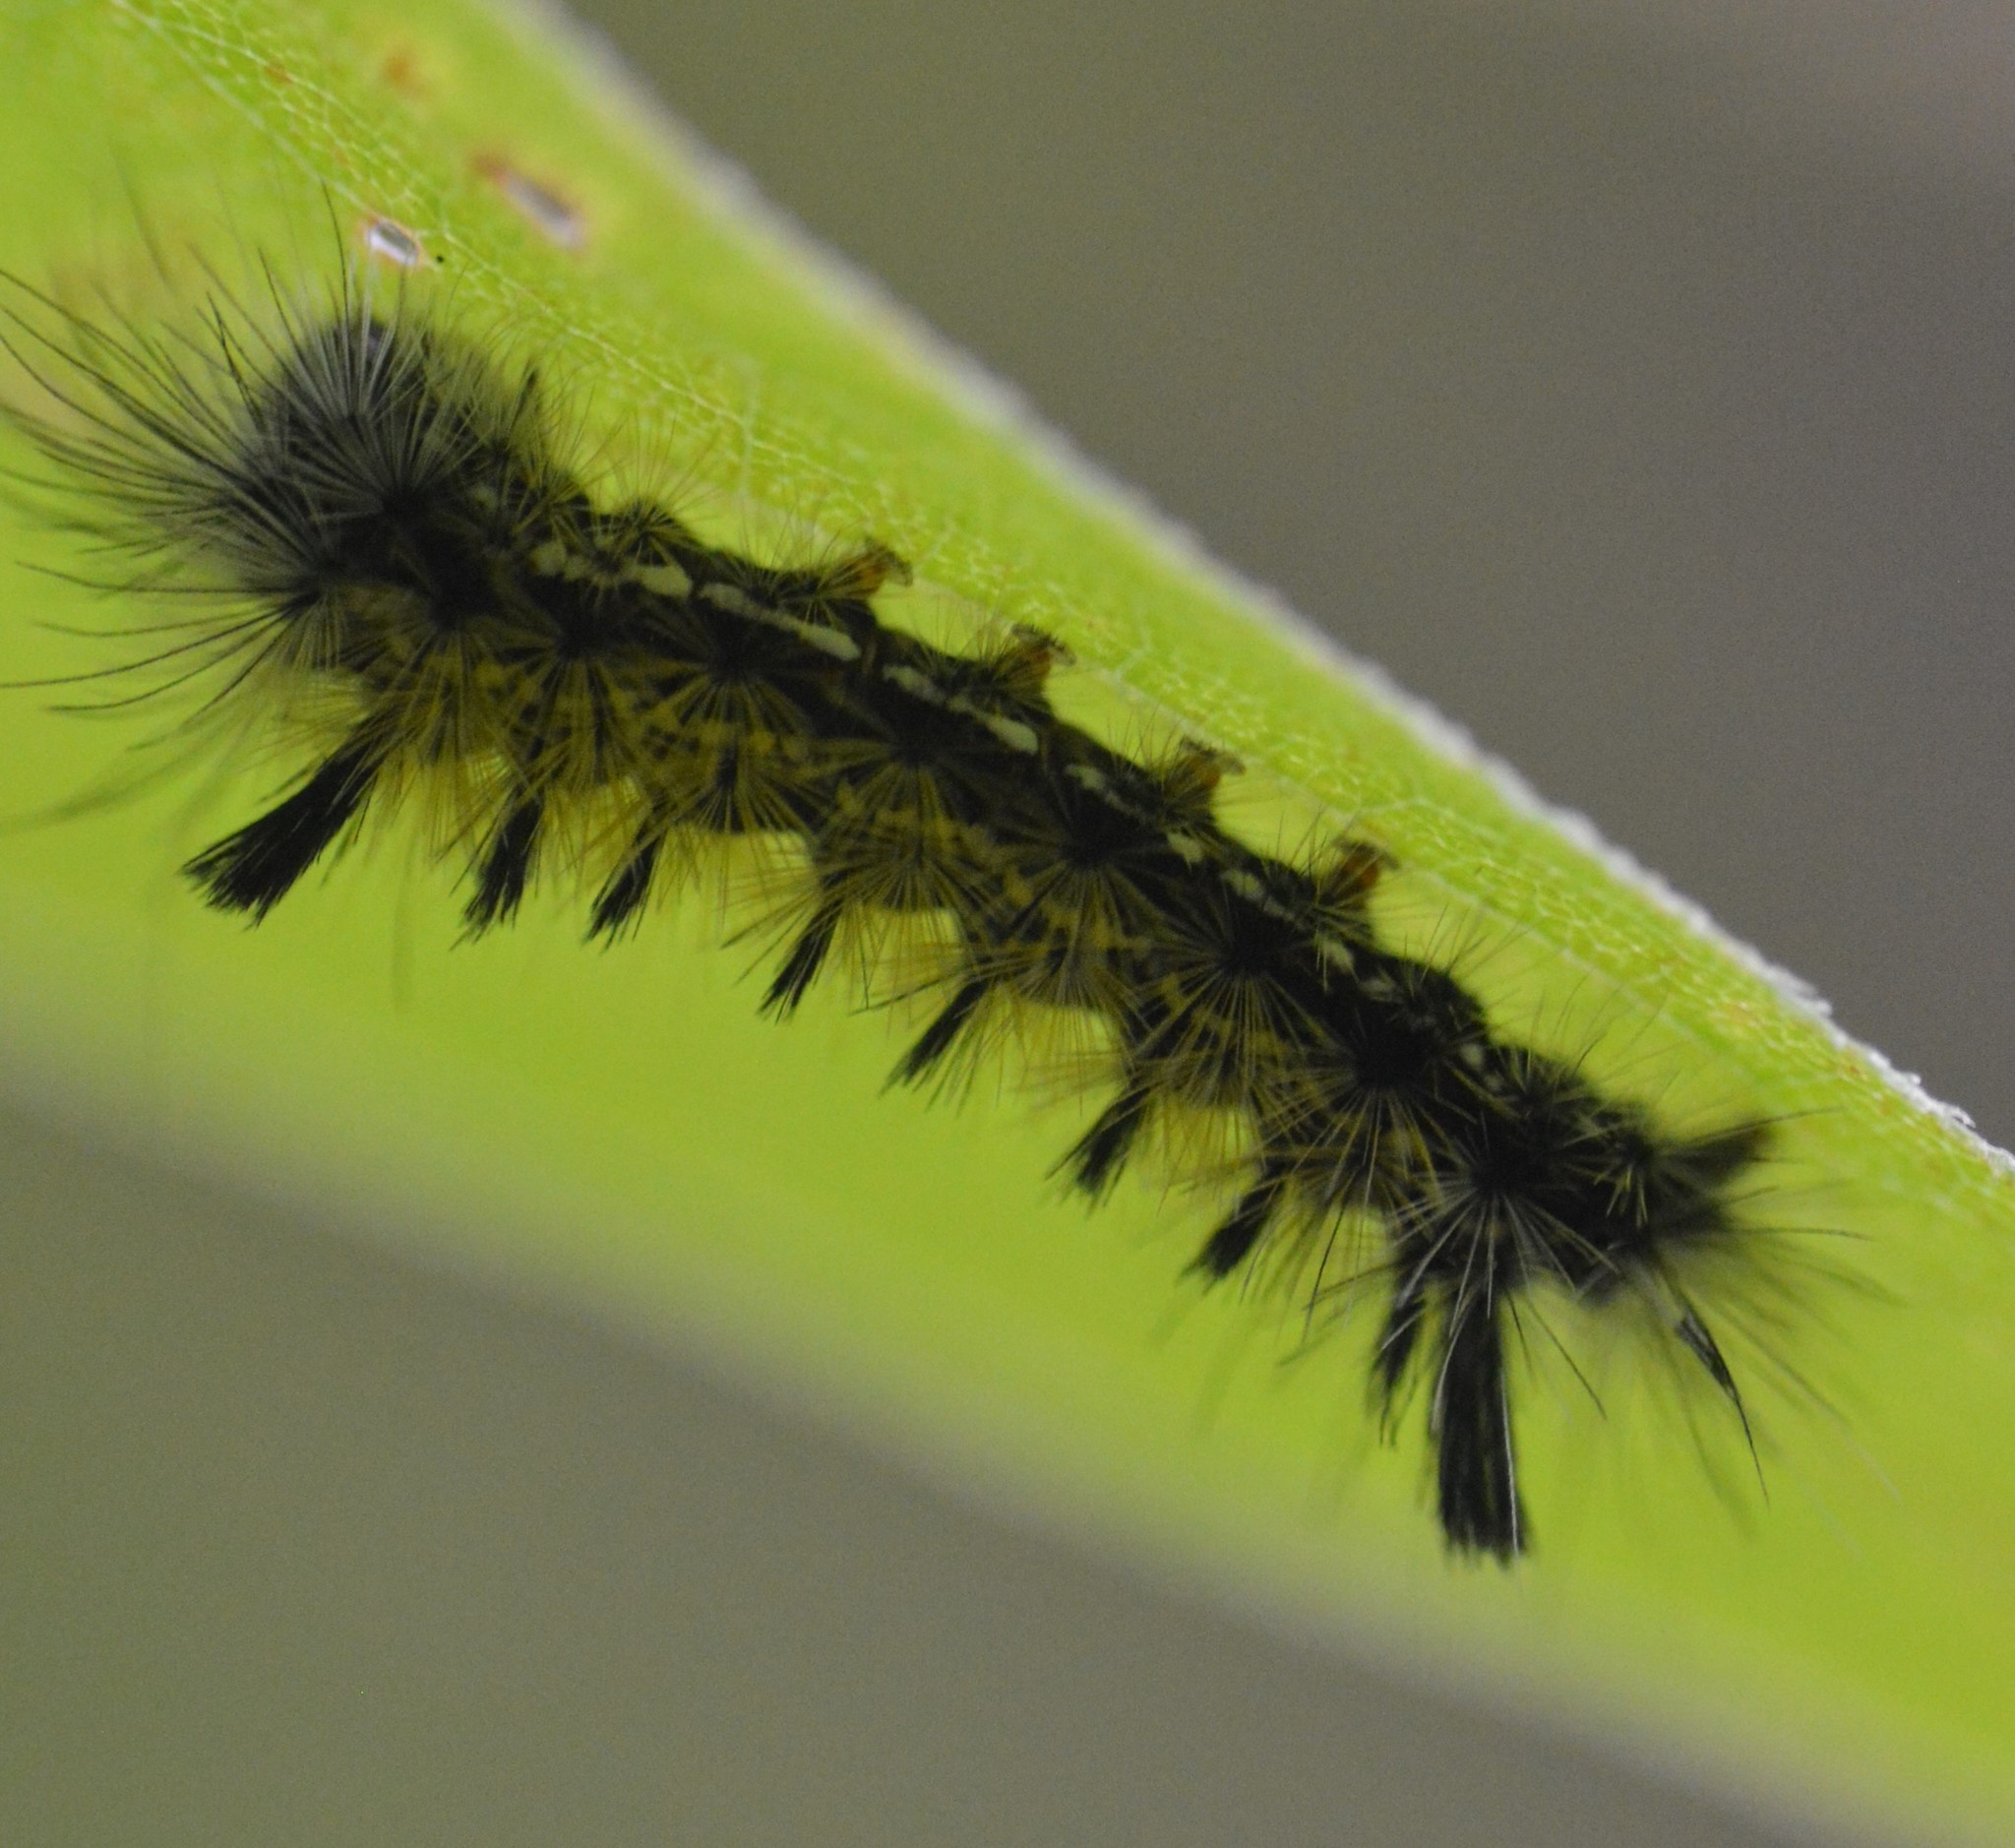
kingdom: Animalia
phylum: Arthropoda
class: Insecta
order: Lepidoptera
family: Erebidae
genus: Ctenucha
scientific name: Ctenucha virginica
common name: Virginia ctenucha moth
